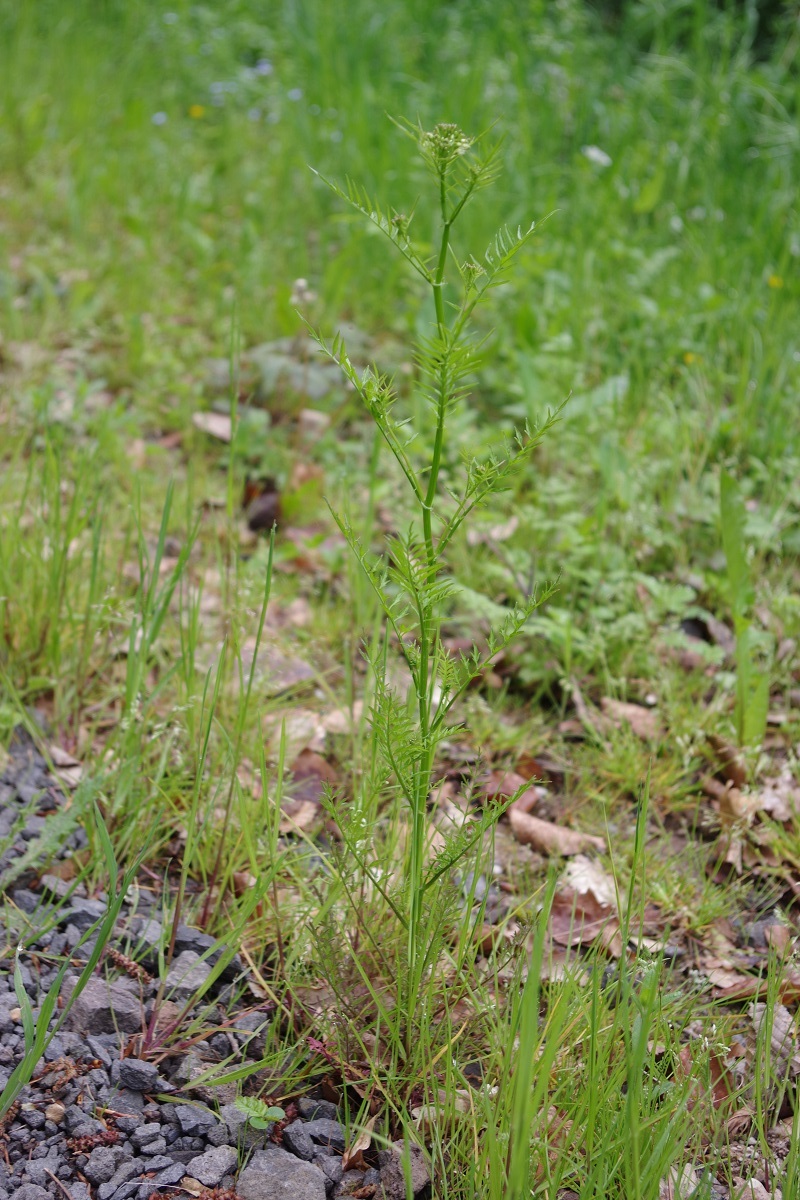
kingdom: Plantae
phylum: Tracheophyta
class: Magnoliopsida
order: Brassicales
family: Brassicaceae
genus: Cardamine
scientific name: Cardamine impatiens
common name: Narrow-leaved bitter-cress
